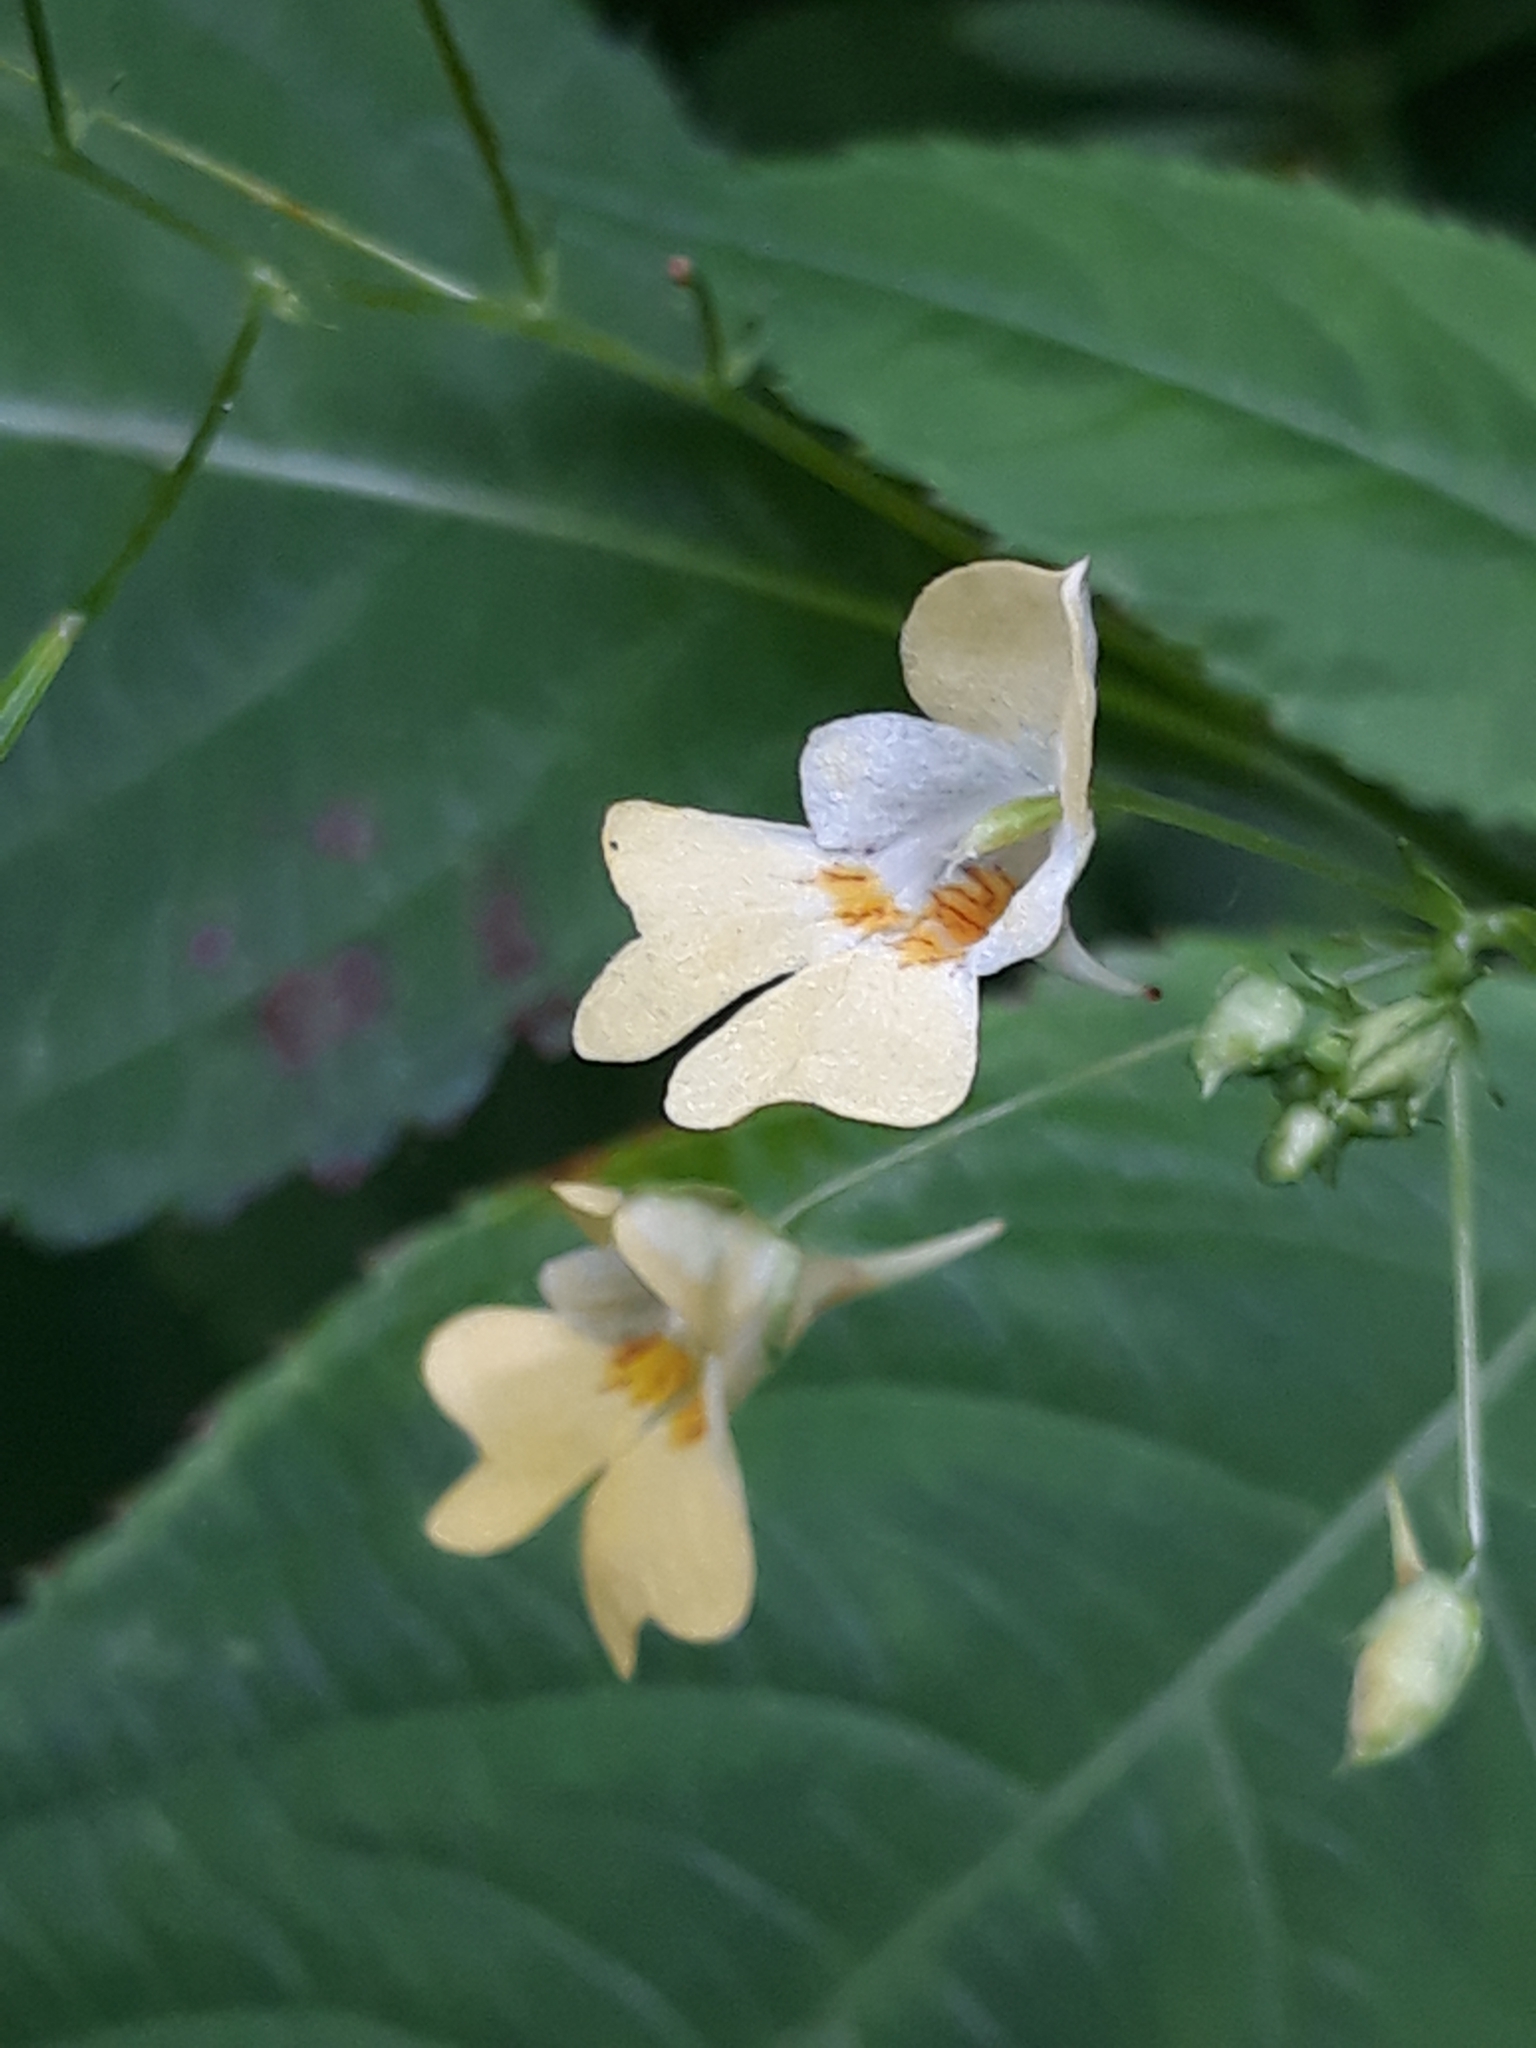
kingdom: Plantae
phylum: Tracheophyta
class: Magnoliopsida
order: Ericales
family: Balsaminaceae
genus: Impatiens
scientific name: Impatiens parviflora
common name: Small balsam
